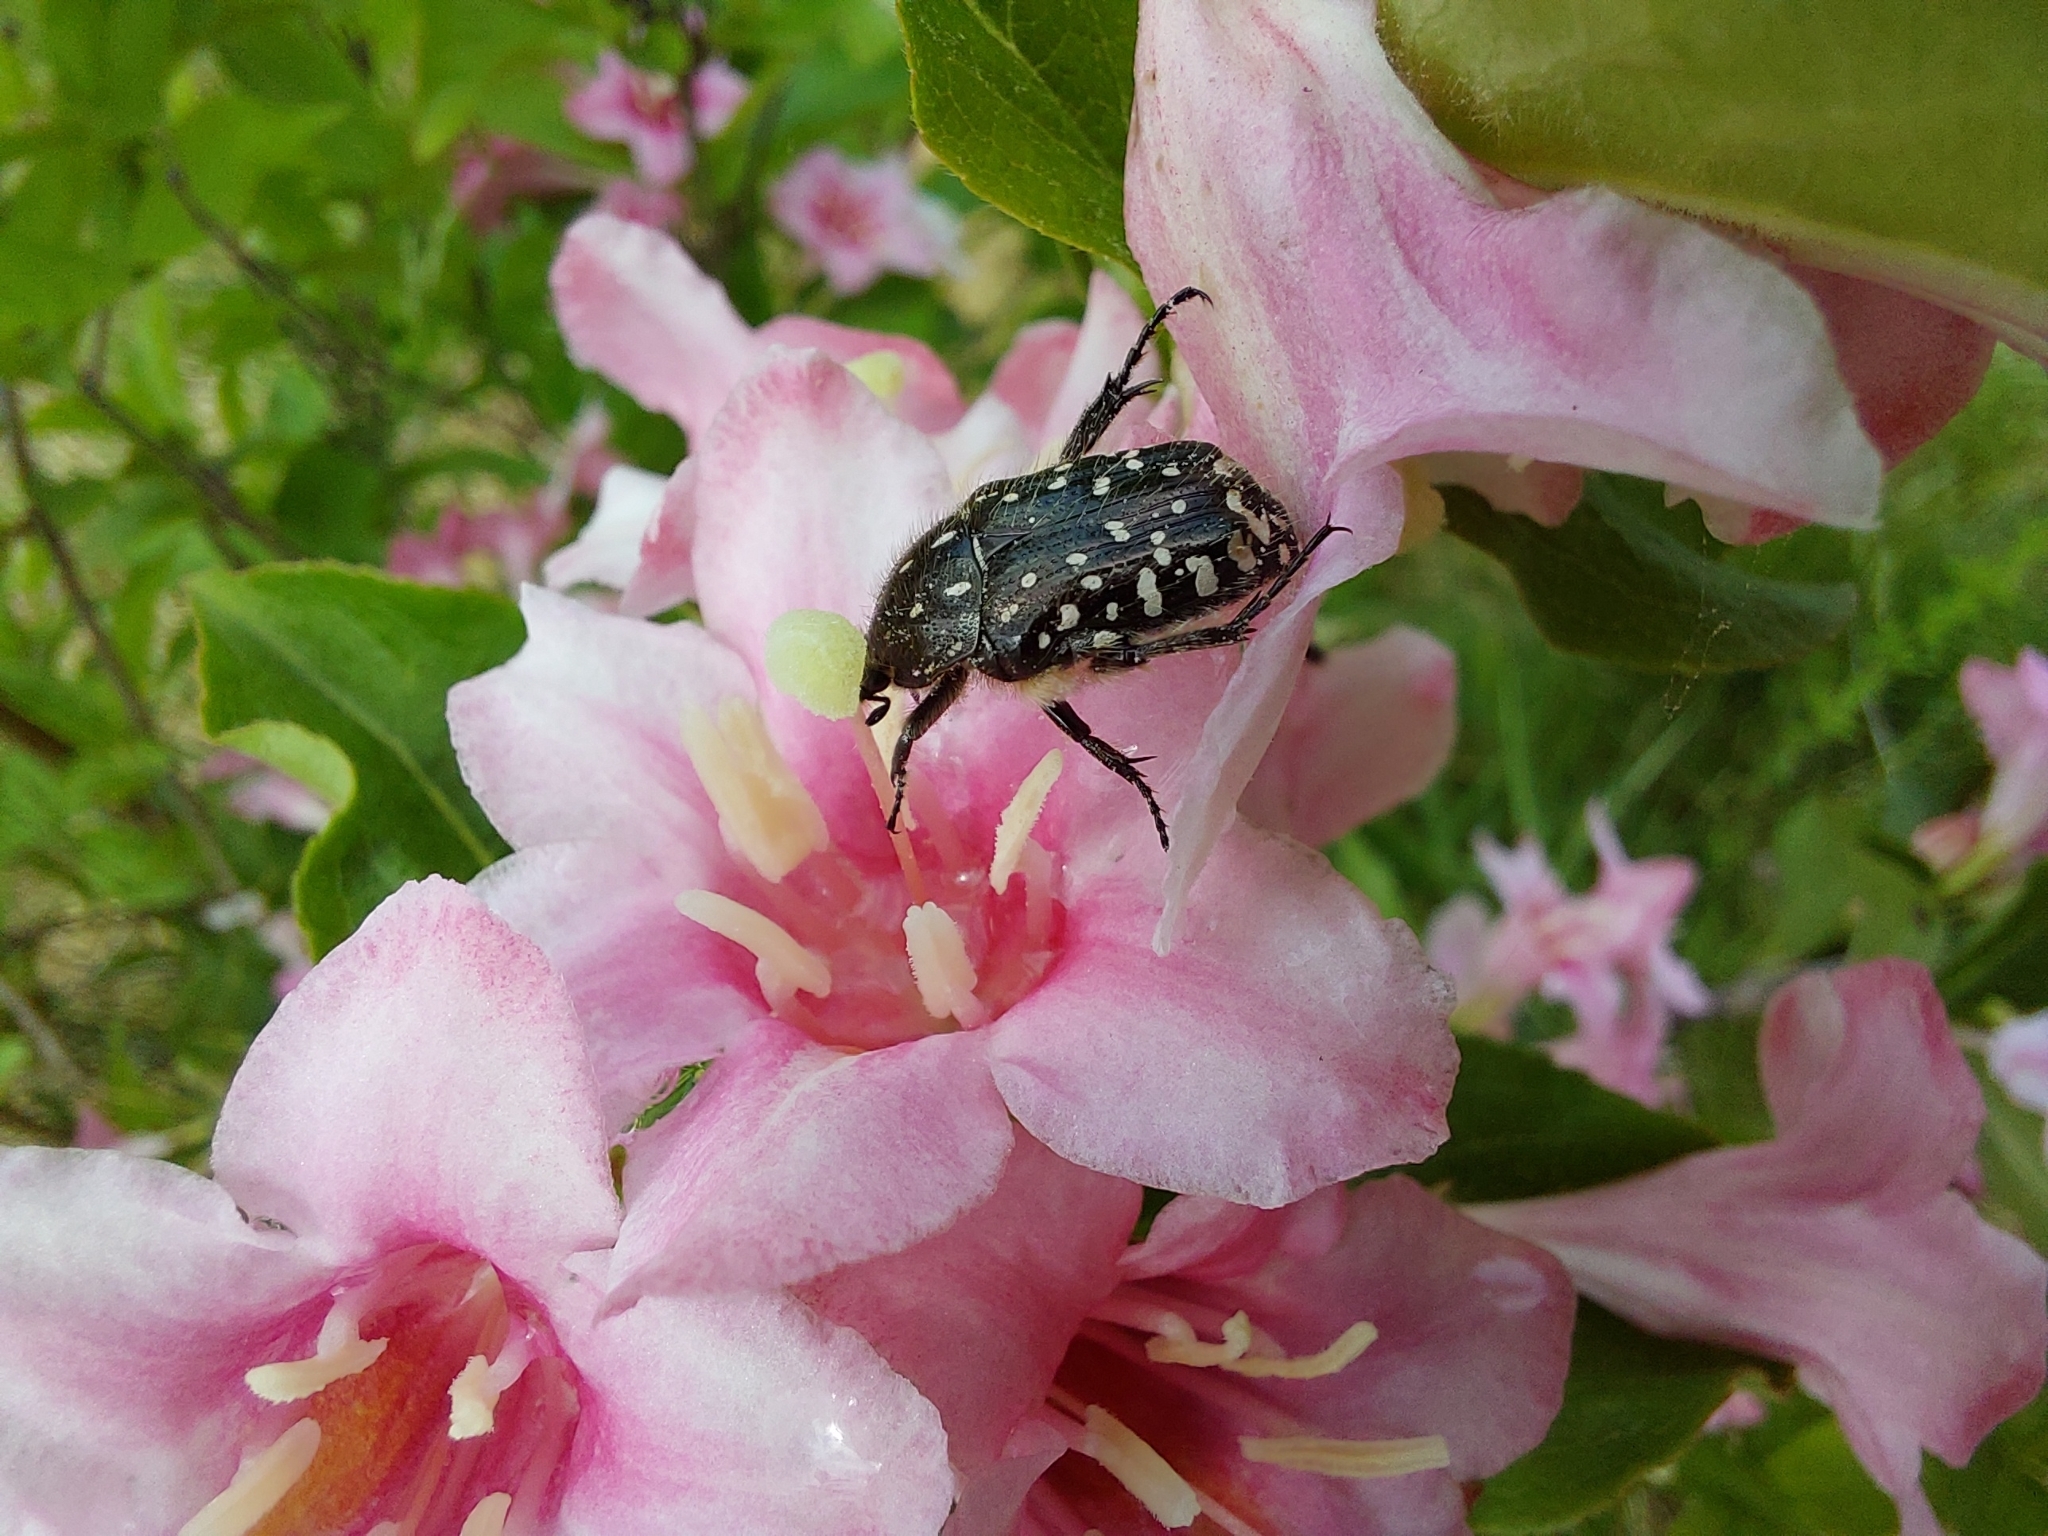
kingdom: Animalia
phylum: Arthropoda
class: Insecta
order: Coleoptera
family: Scarabaeidae
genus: Oxythyrea
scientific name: Oxythyrea funesta
